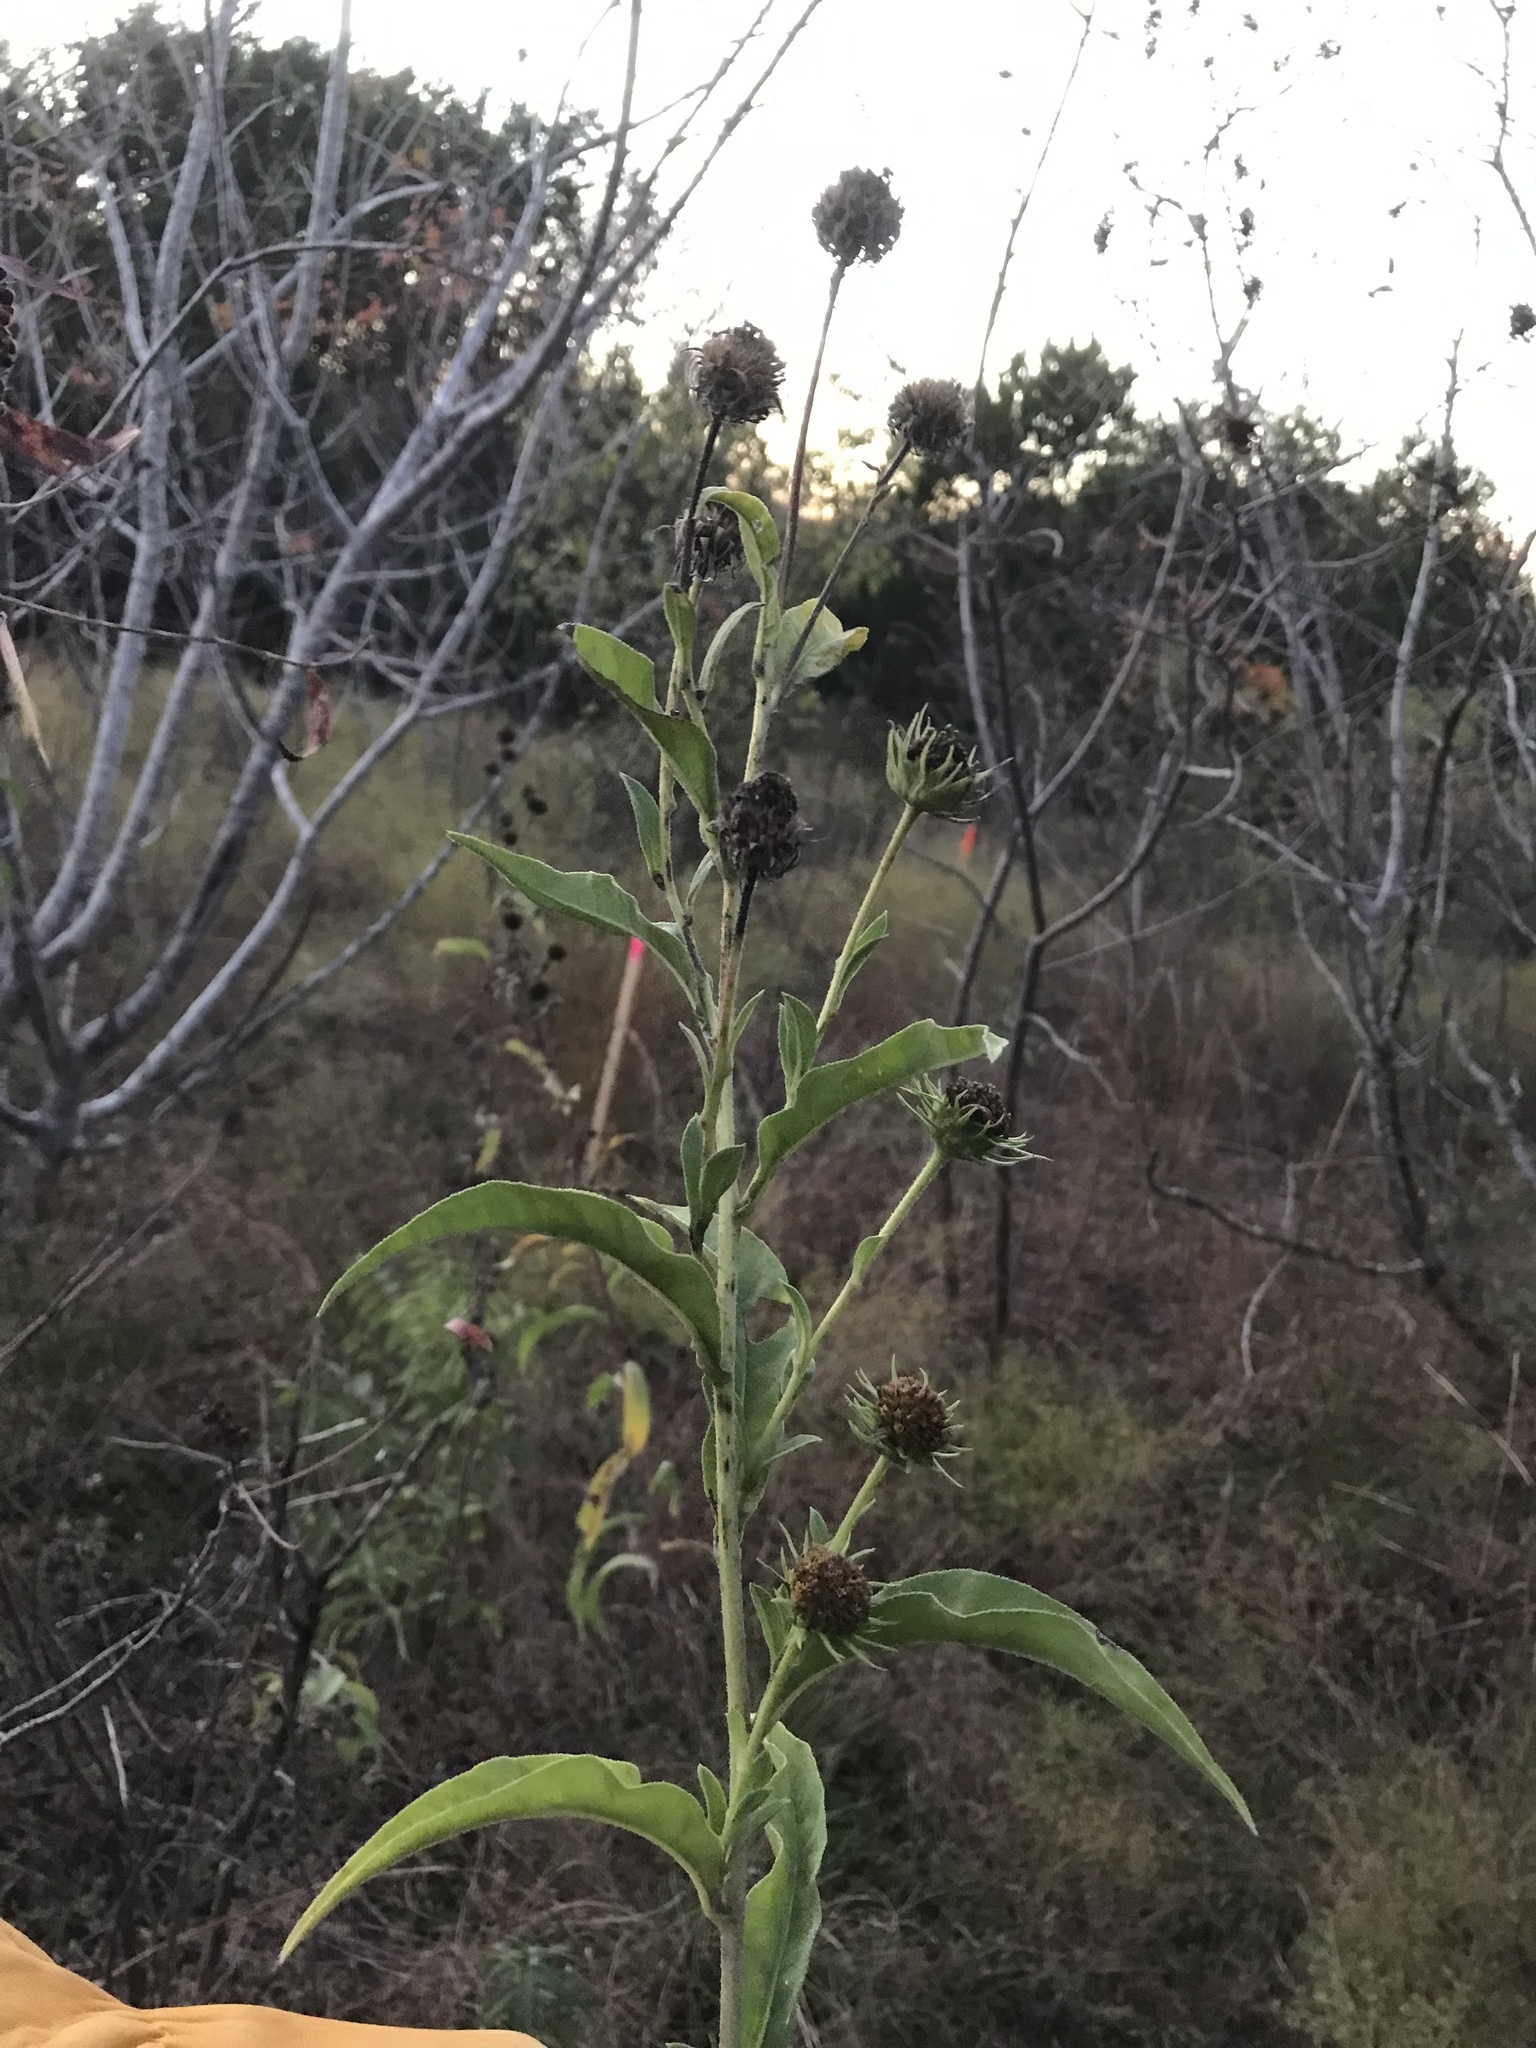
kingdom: Plantae
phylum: Tracheophyta
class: Magnoliopsida
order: Asterales
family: Asteraceae
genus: Helianthus
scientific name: Helianthus maximiliani
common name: Maximilian's sunflower
